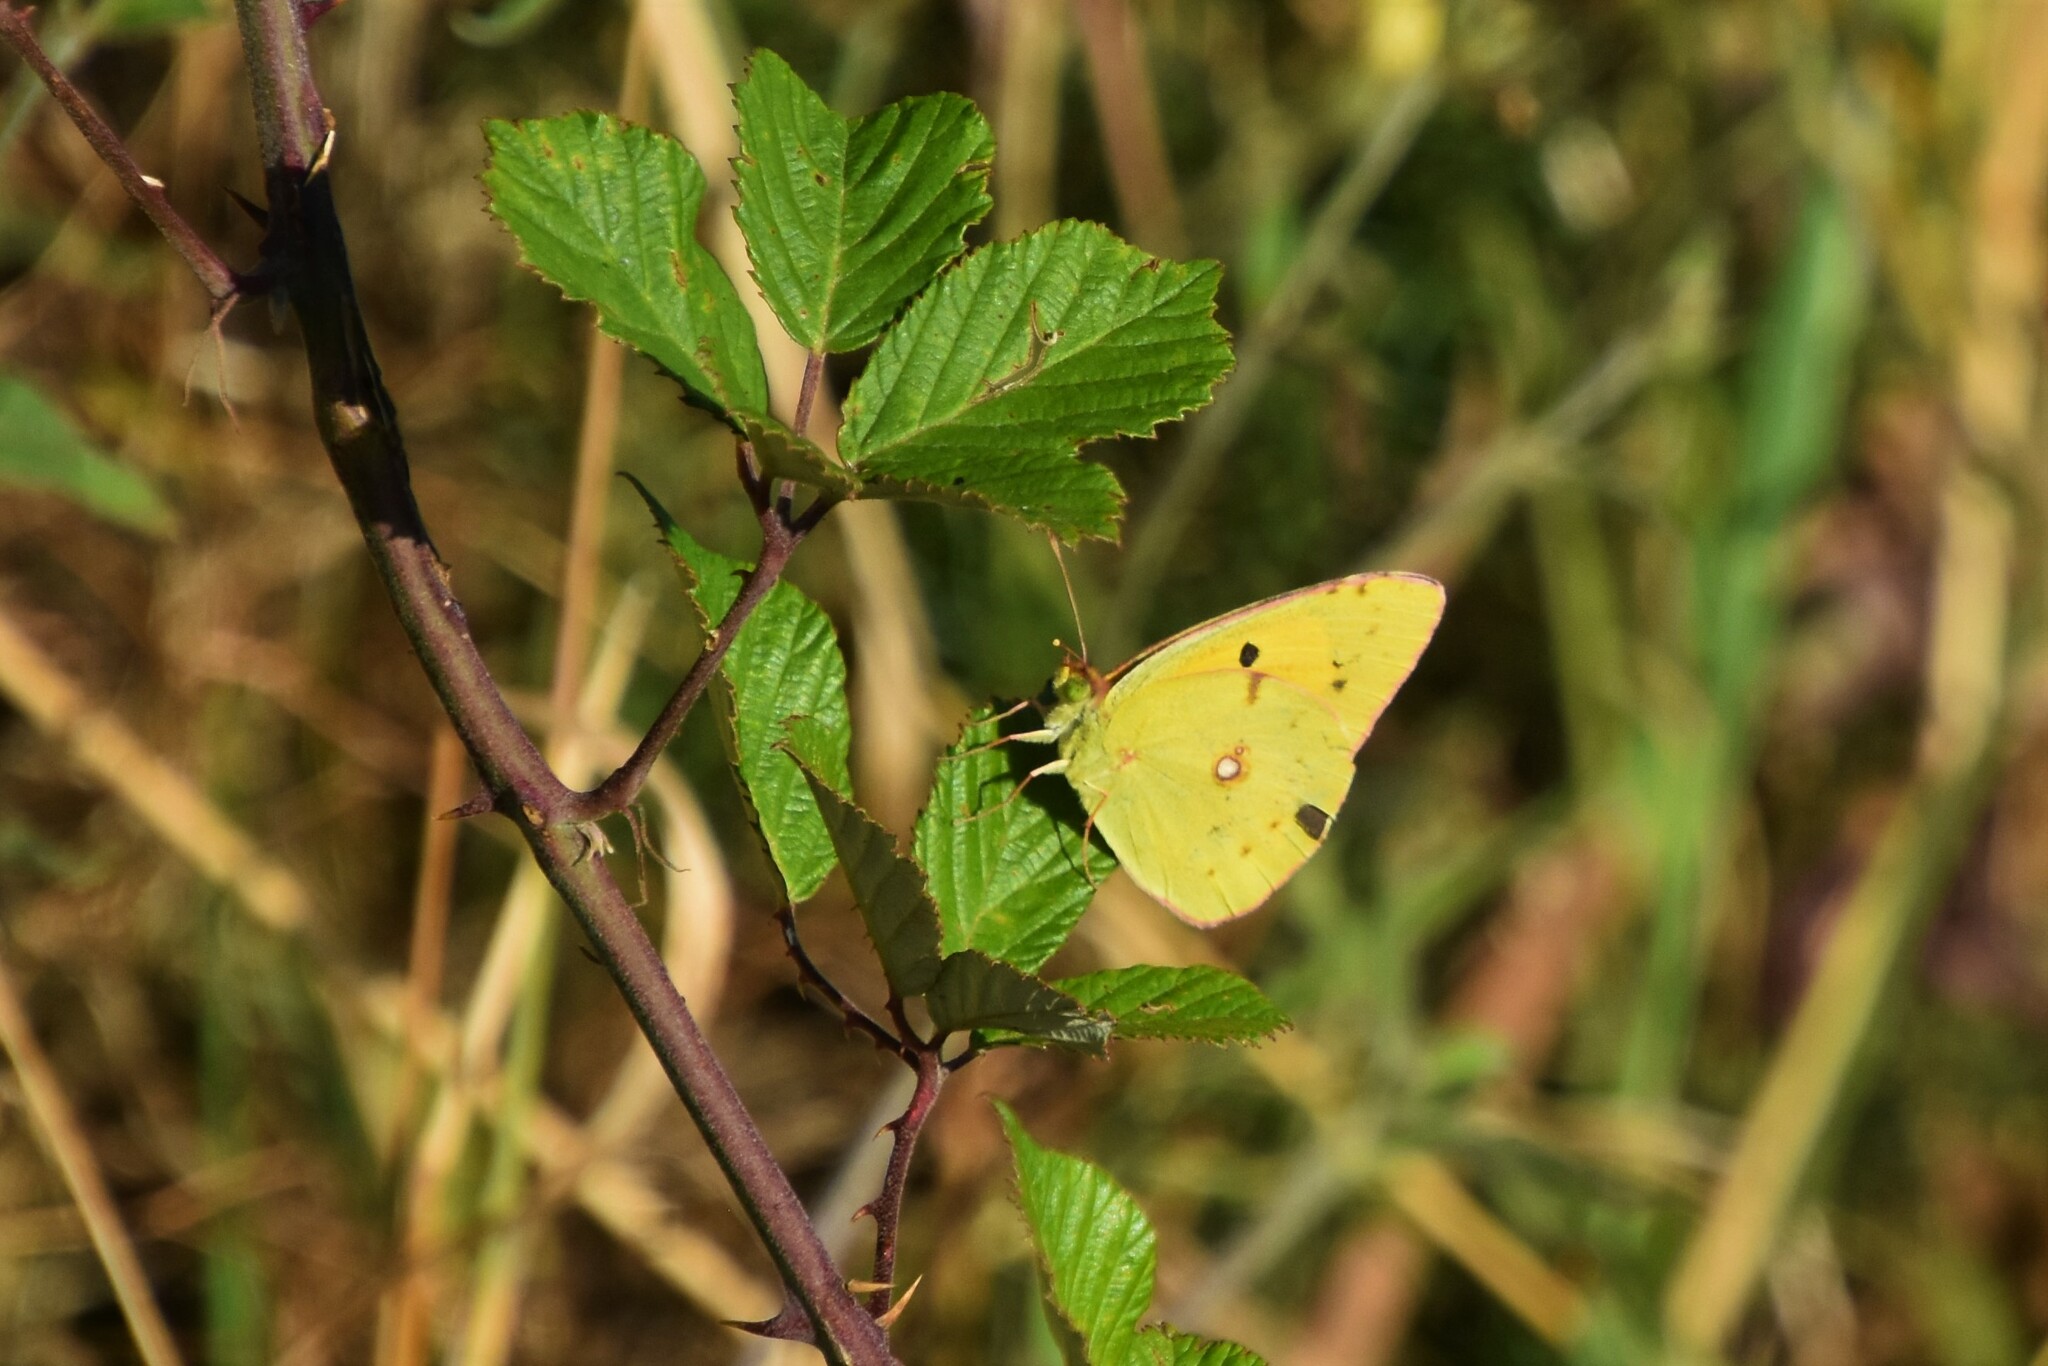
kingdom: Animalia
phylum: Arthropoda
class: Insecta
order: Lepidoptera
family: Pieridae
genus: Colias
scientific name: Colias croceus
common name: Clouded yellow
